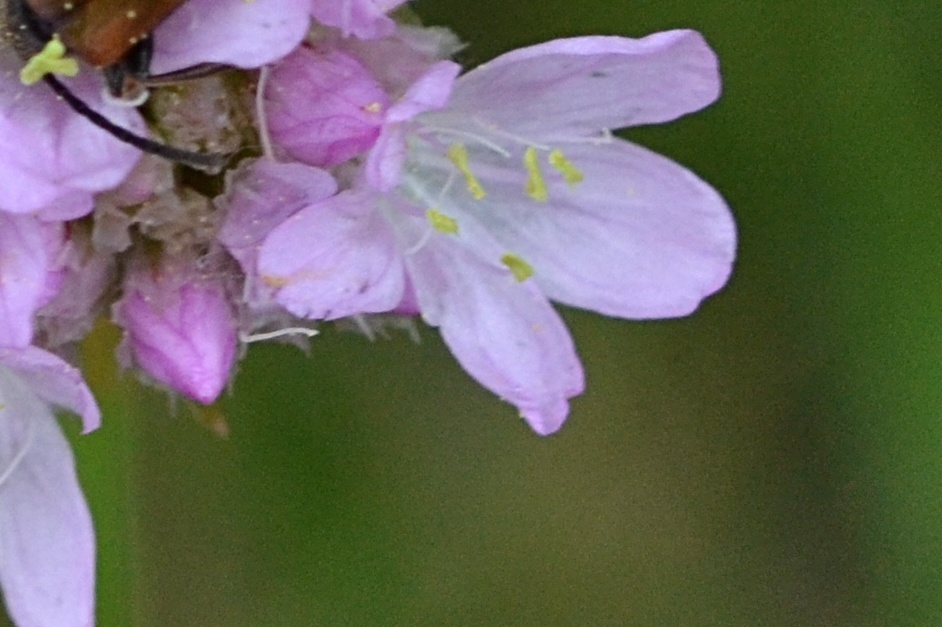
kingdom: Plantae
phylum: Tracheophyta
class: Magnoliopsida
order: Caryophyllales
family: Plumbaginaceae
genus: Armeria
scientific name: Armeria maritima
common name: Thrift
